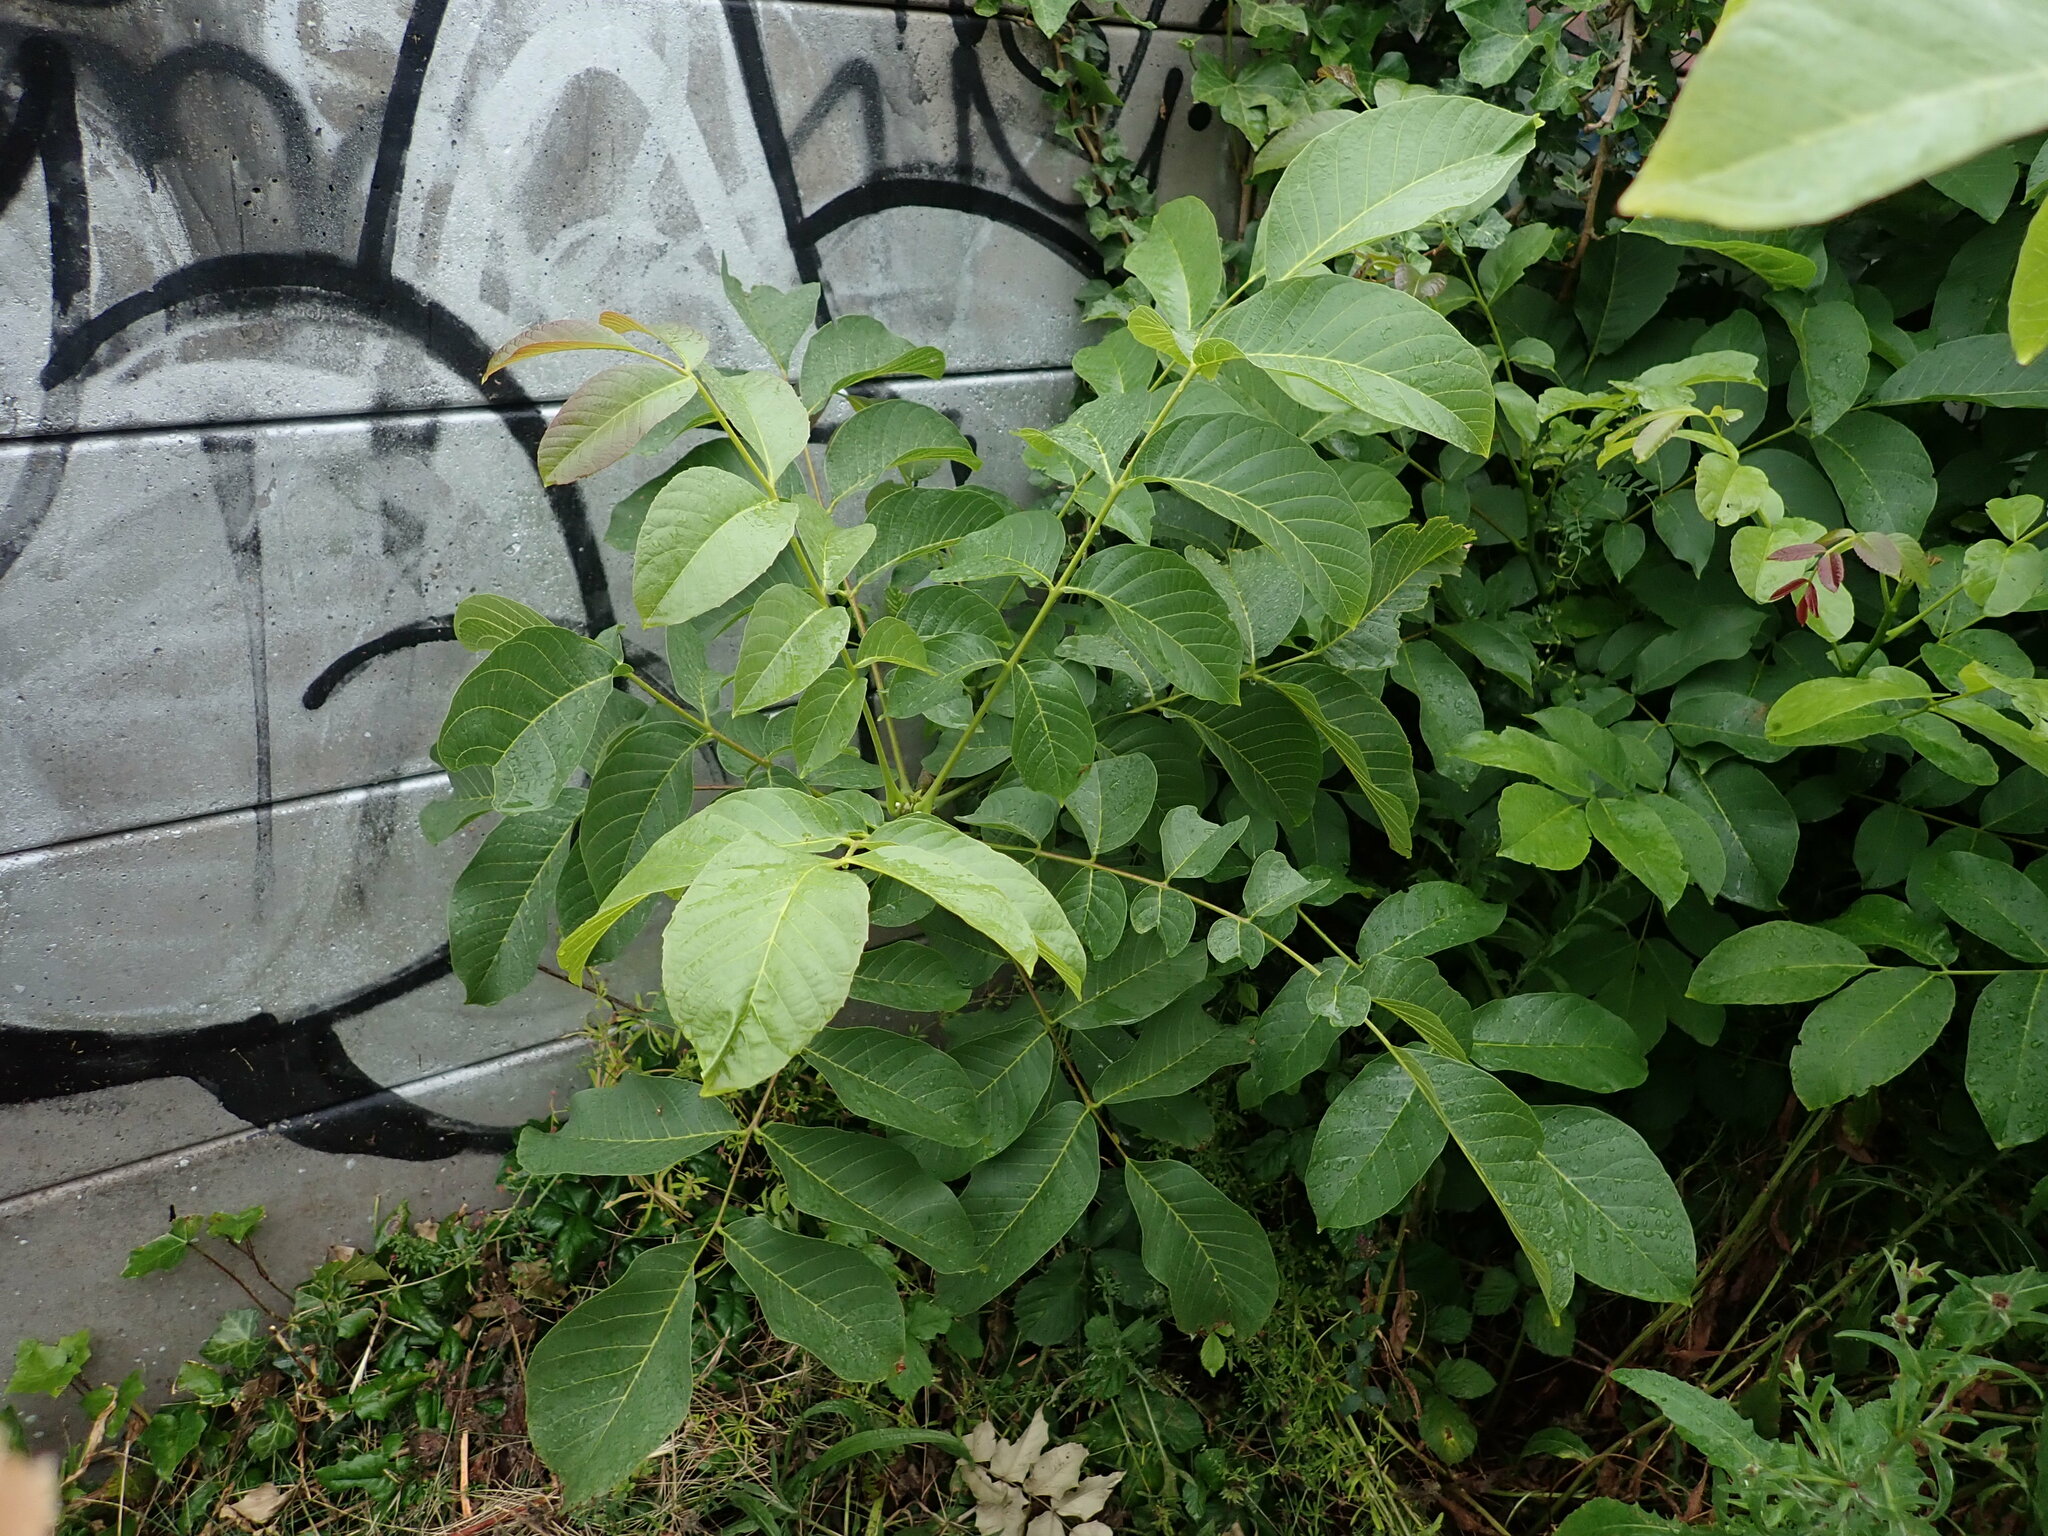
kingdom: Plantae
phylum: Tracheophyta
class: Magnoliopsida
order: Fagales
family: Juglandaceae
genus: Juglans
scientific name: Juglans regia
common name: Walnut
